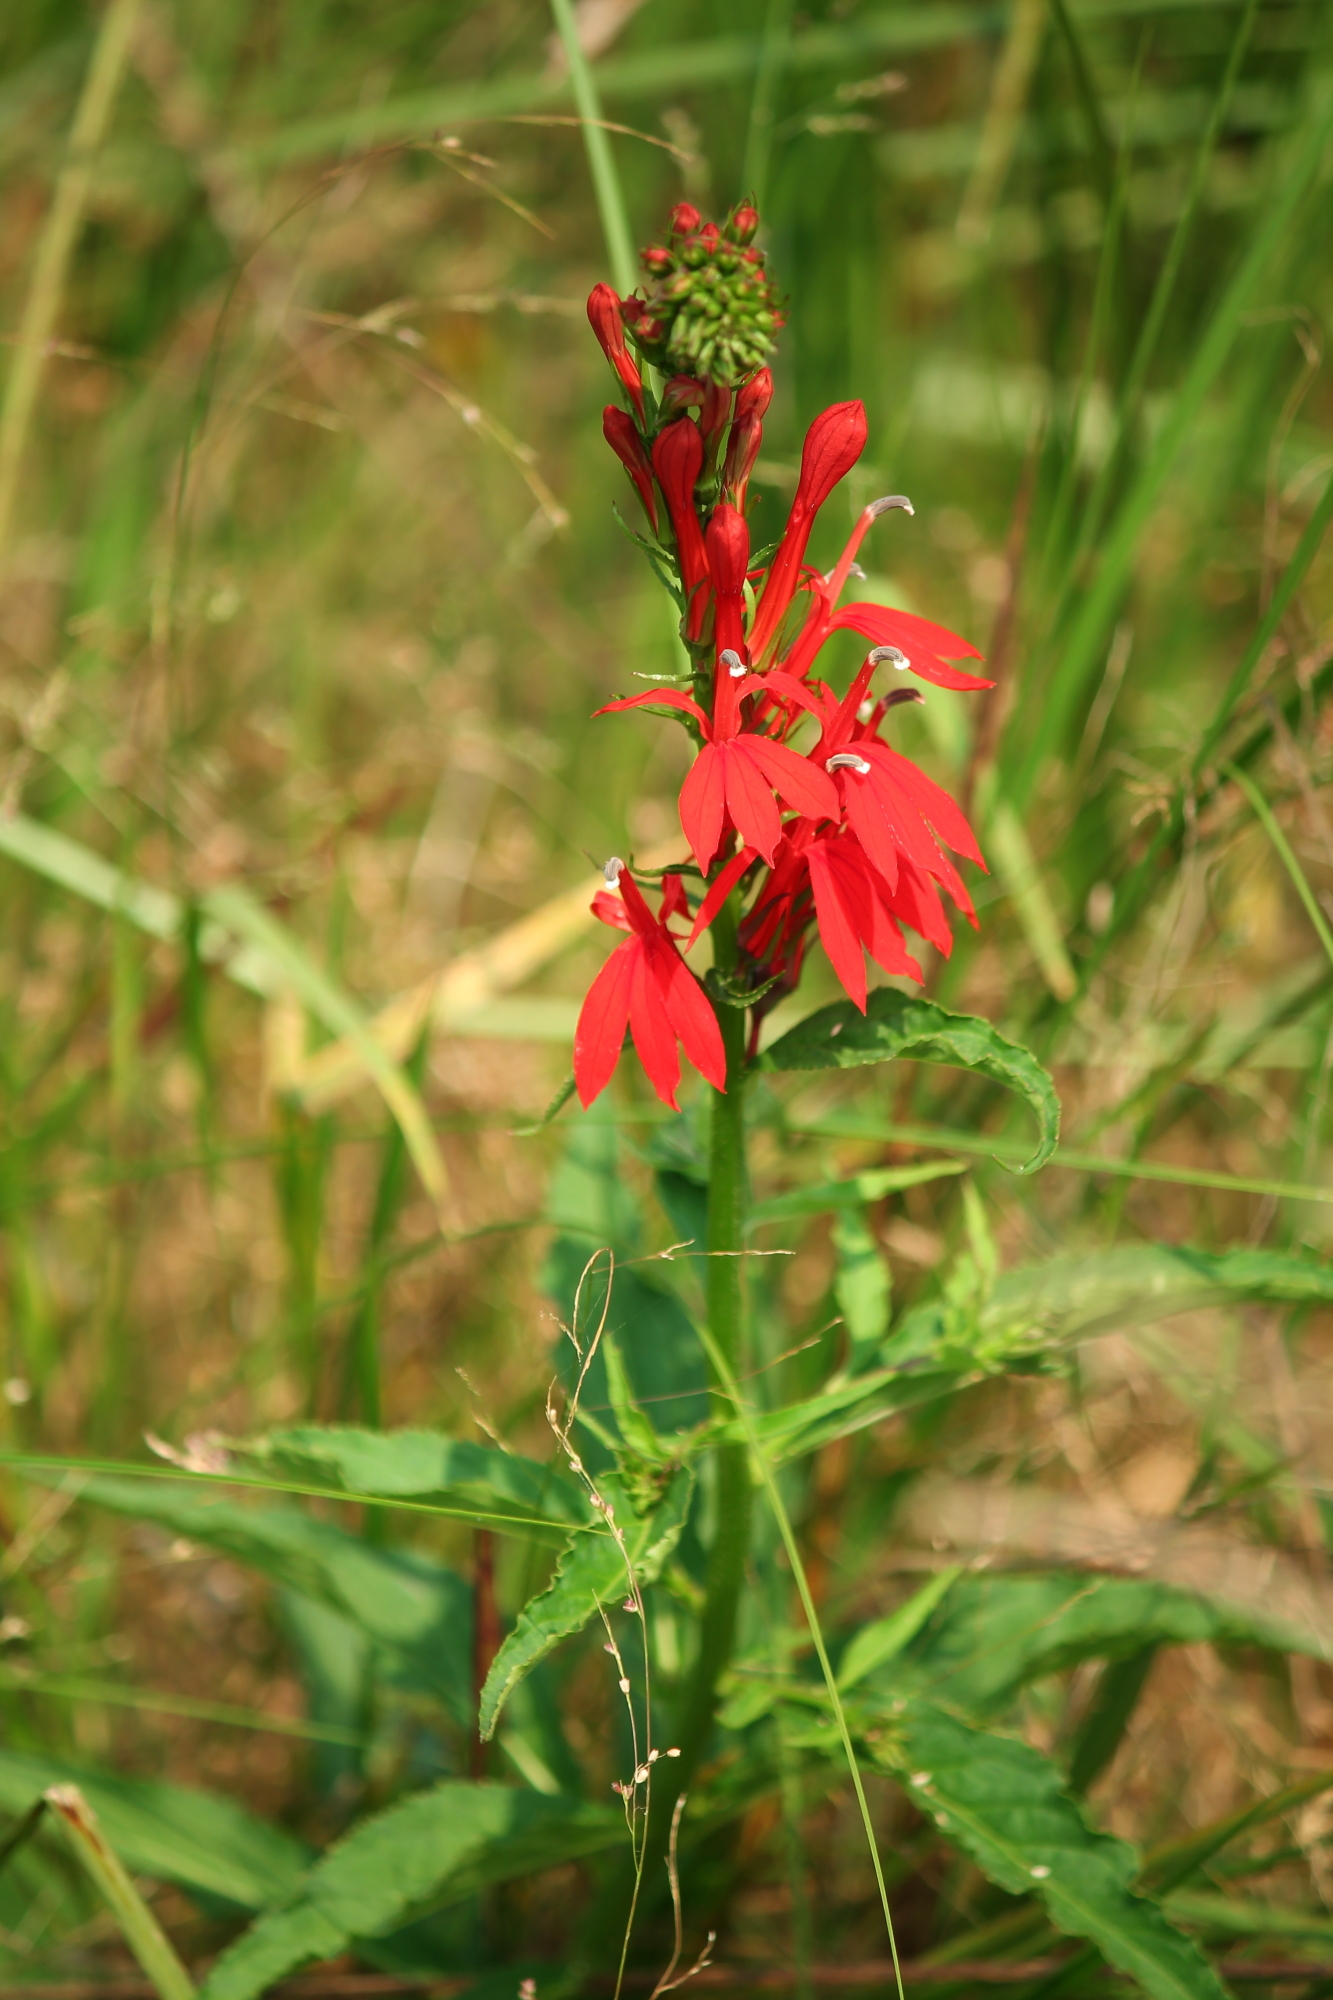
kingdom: Plantae
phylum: Tracheophyta
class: Magnoliopsida
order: Asterales
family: Campanulaceae
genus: Lobelia
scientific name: Lobelia cardinalis
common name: Cardinal flower
